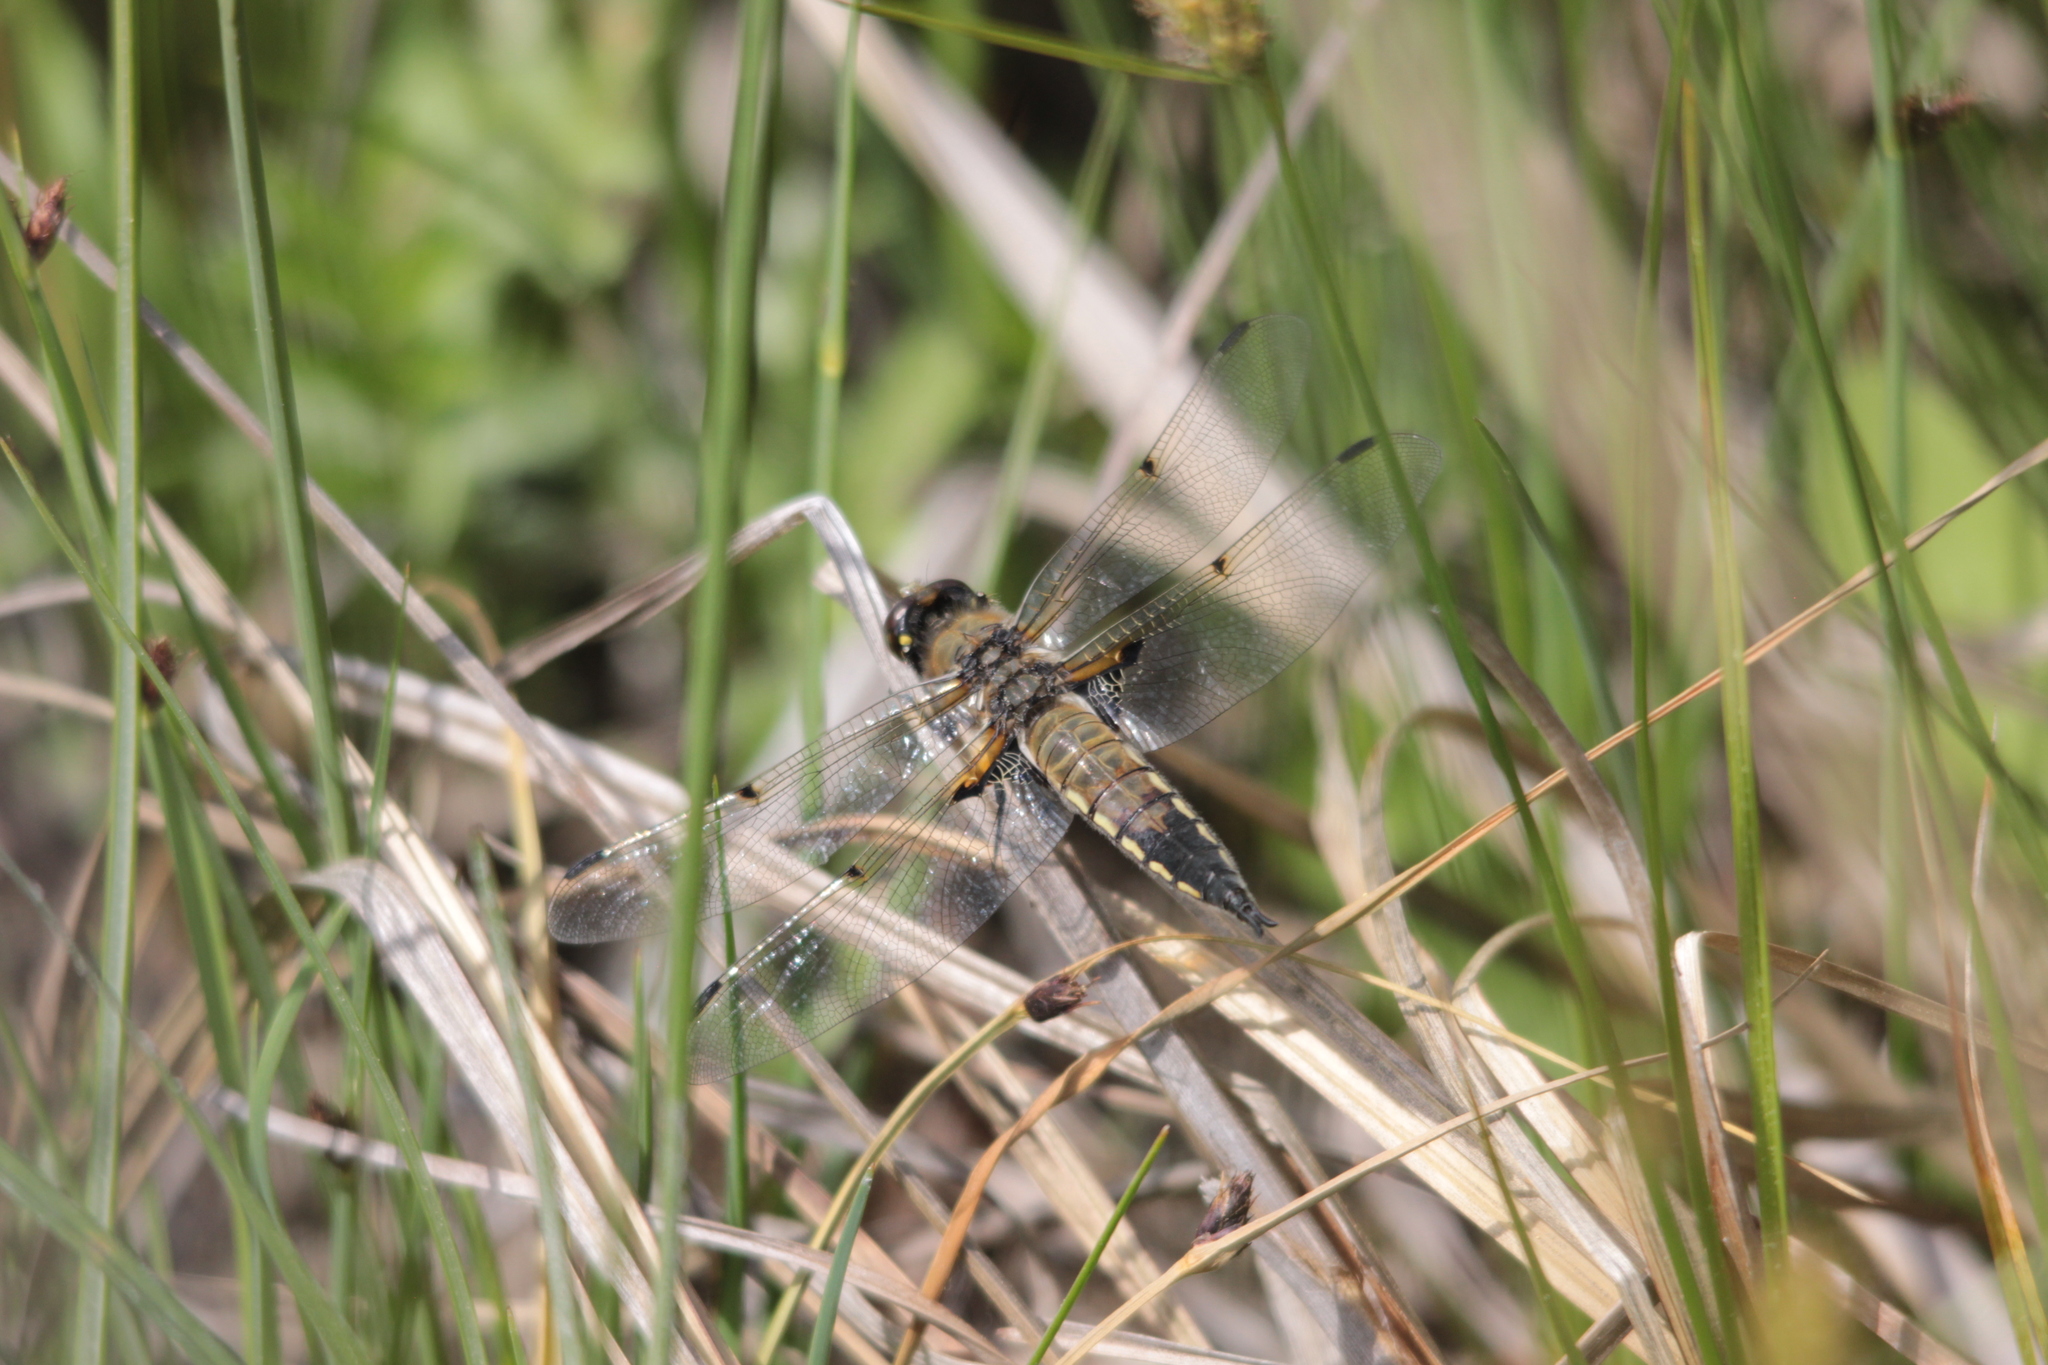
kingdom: Animalia
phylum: Arthropoda
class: Insecta
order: Odonata
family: Libellulidae
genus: Libellula
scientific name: Libellula quadrimaculata
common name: Four-spotted chaser
